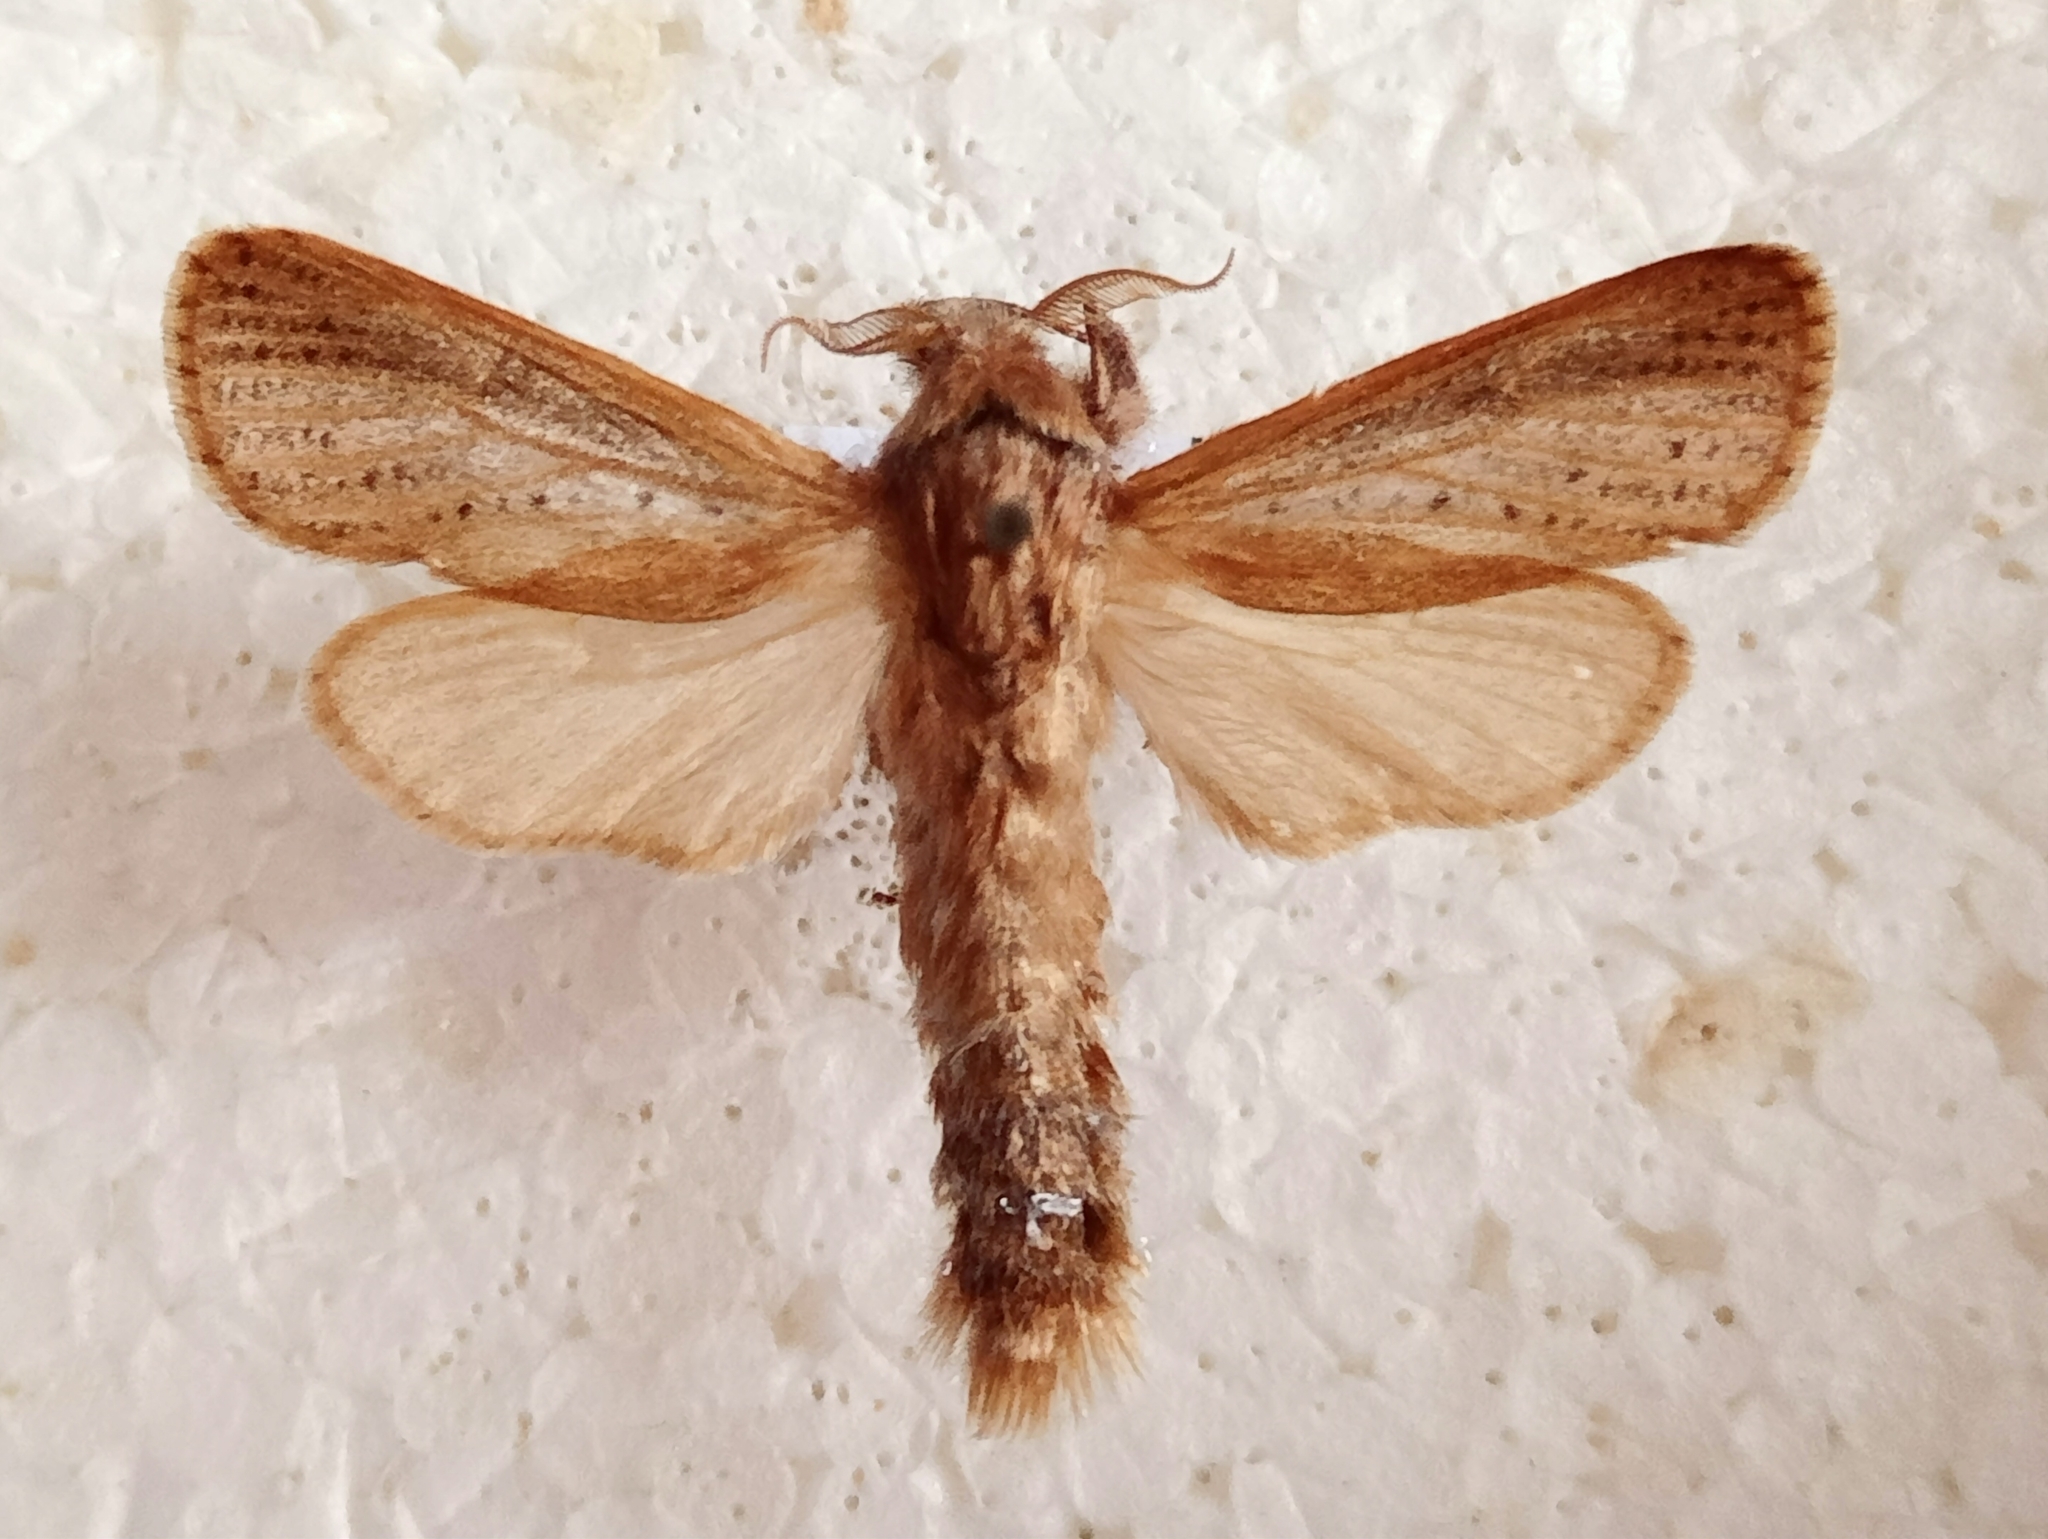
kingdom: Animalia
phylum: Arthropoda
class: Insecta
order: Lepidoptera
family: Cossidae
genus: Phragmataecia
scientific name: Phragmataecia castaneae
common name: Reed leopard
